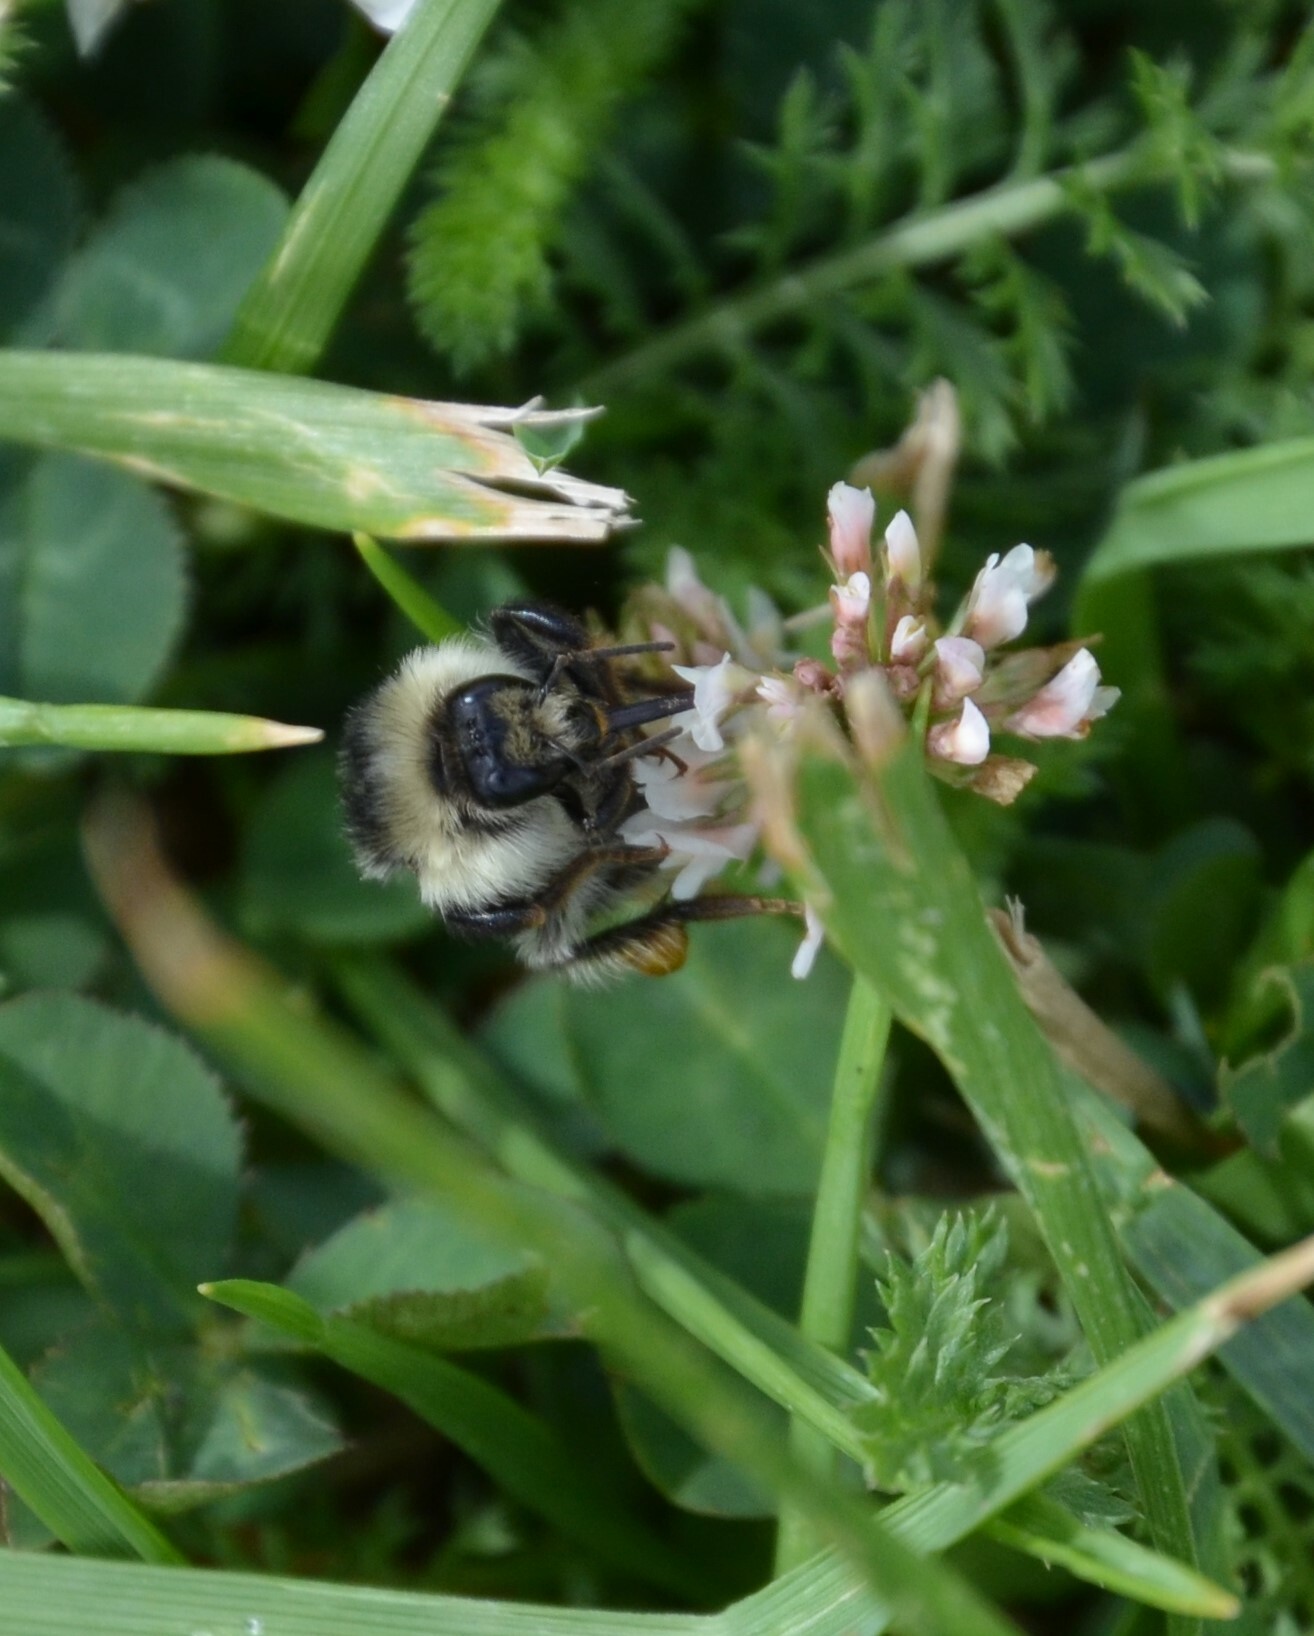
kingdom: Animalia
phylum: Arthropoda
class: Insecta
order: Hymenoptera
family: Apidae
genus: Bombus
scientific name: Bombus sylvarum
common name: Shrill carder bee
